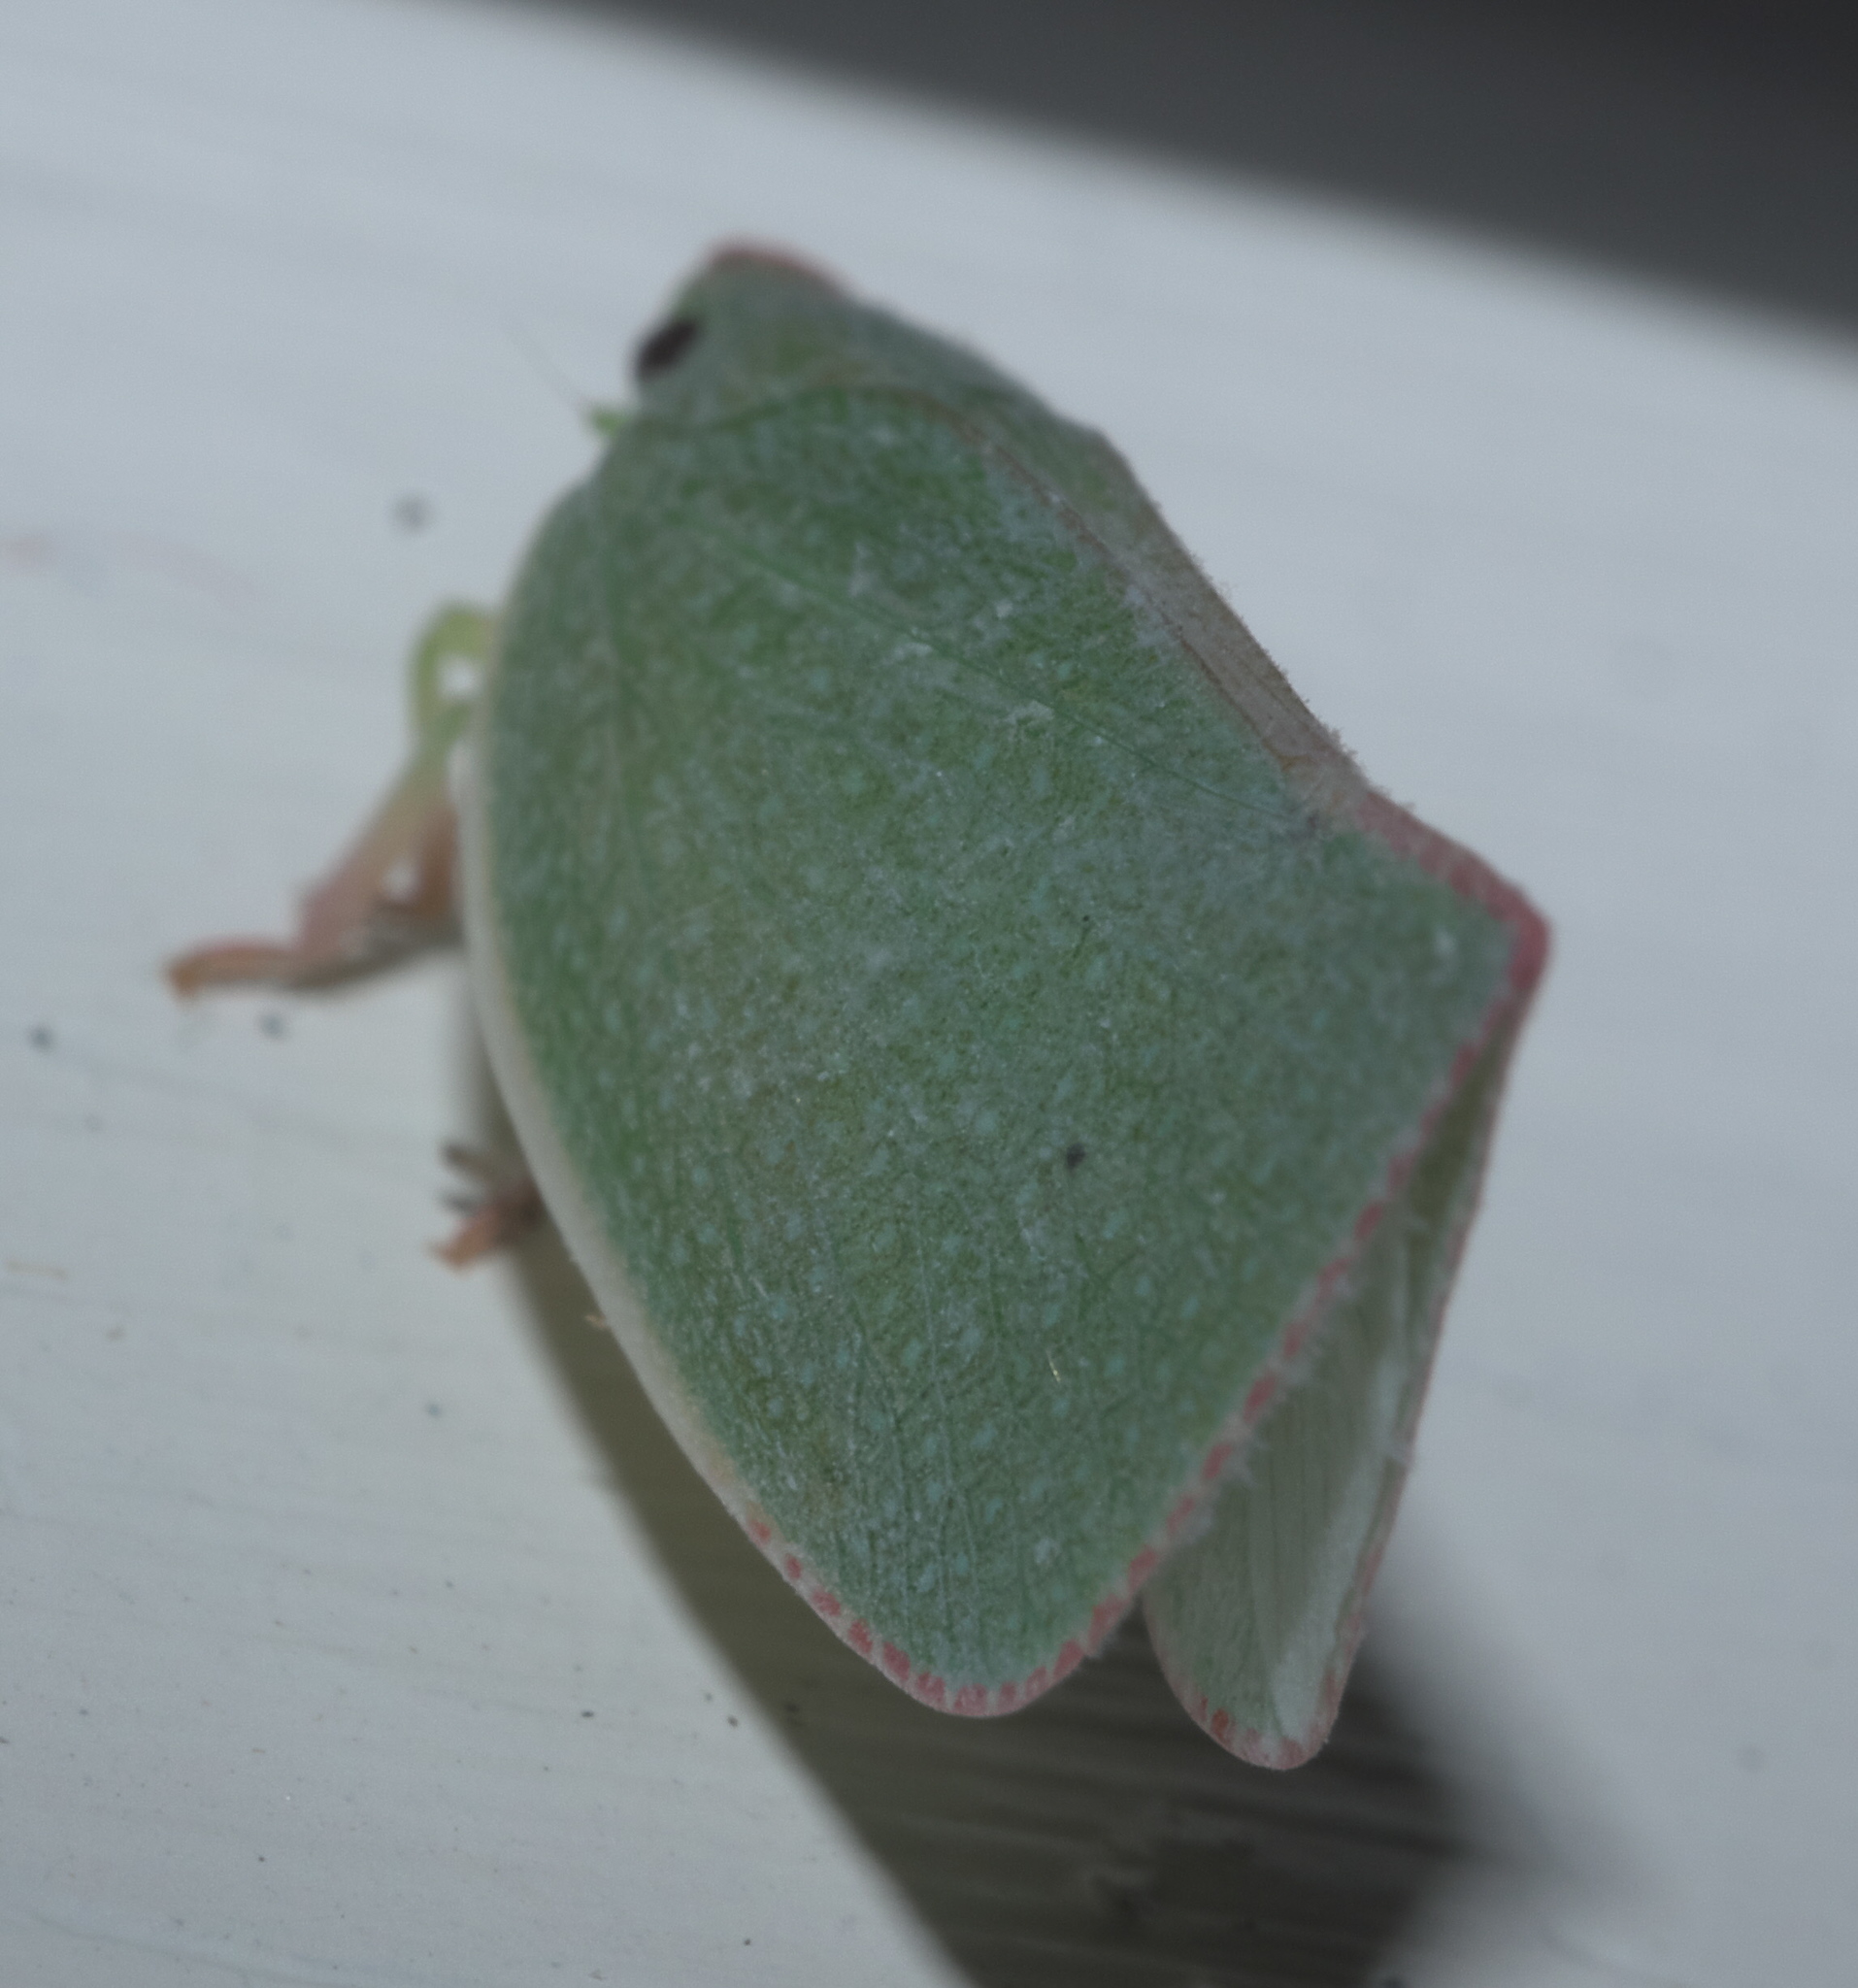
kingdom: Animalia
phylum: Arthropoda
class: Insecta
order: Hemiptera
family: Flatidae
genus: Siphanta
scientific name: Siphanta acuta
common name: Torpedo bug
